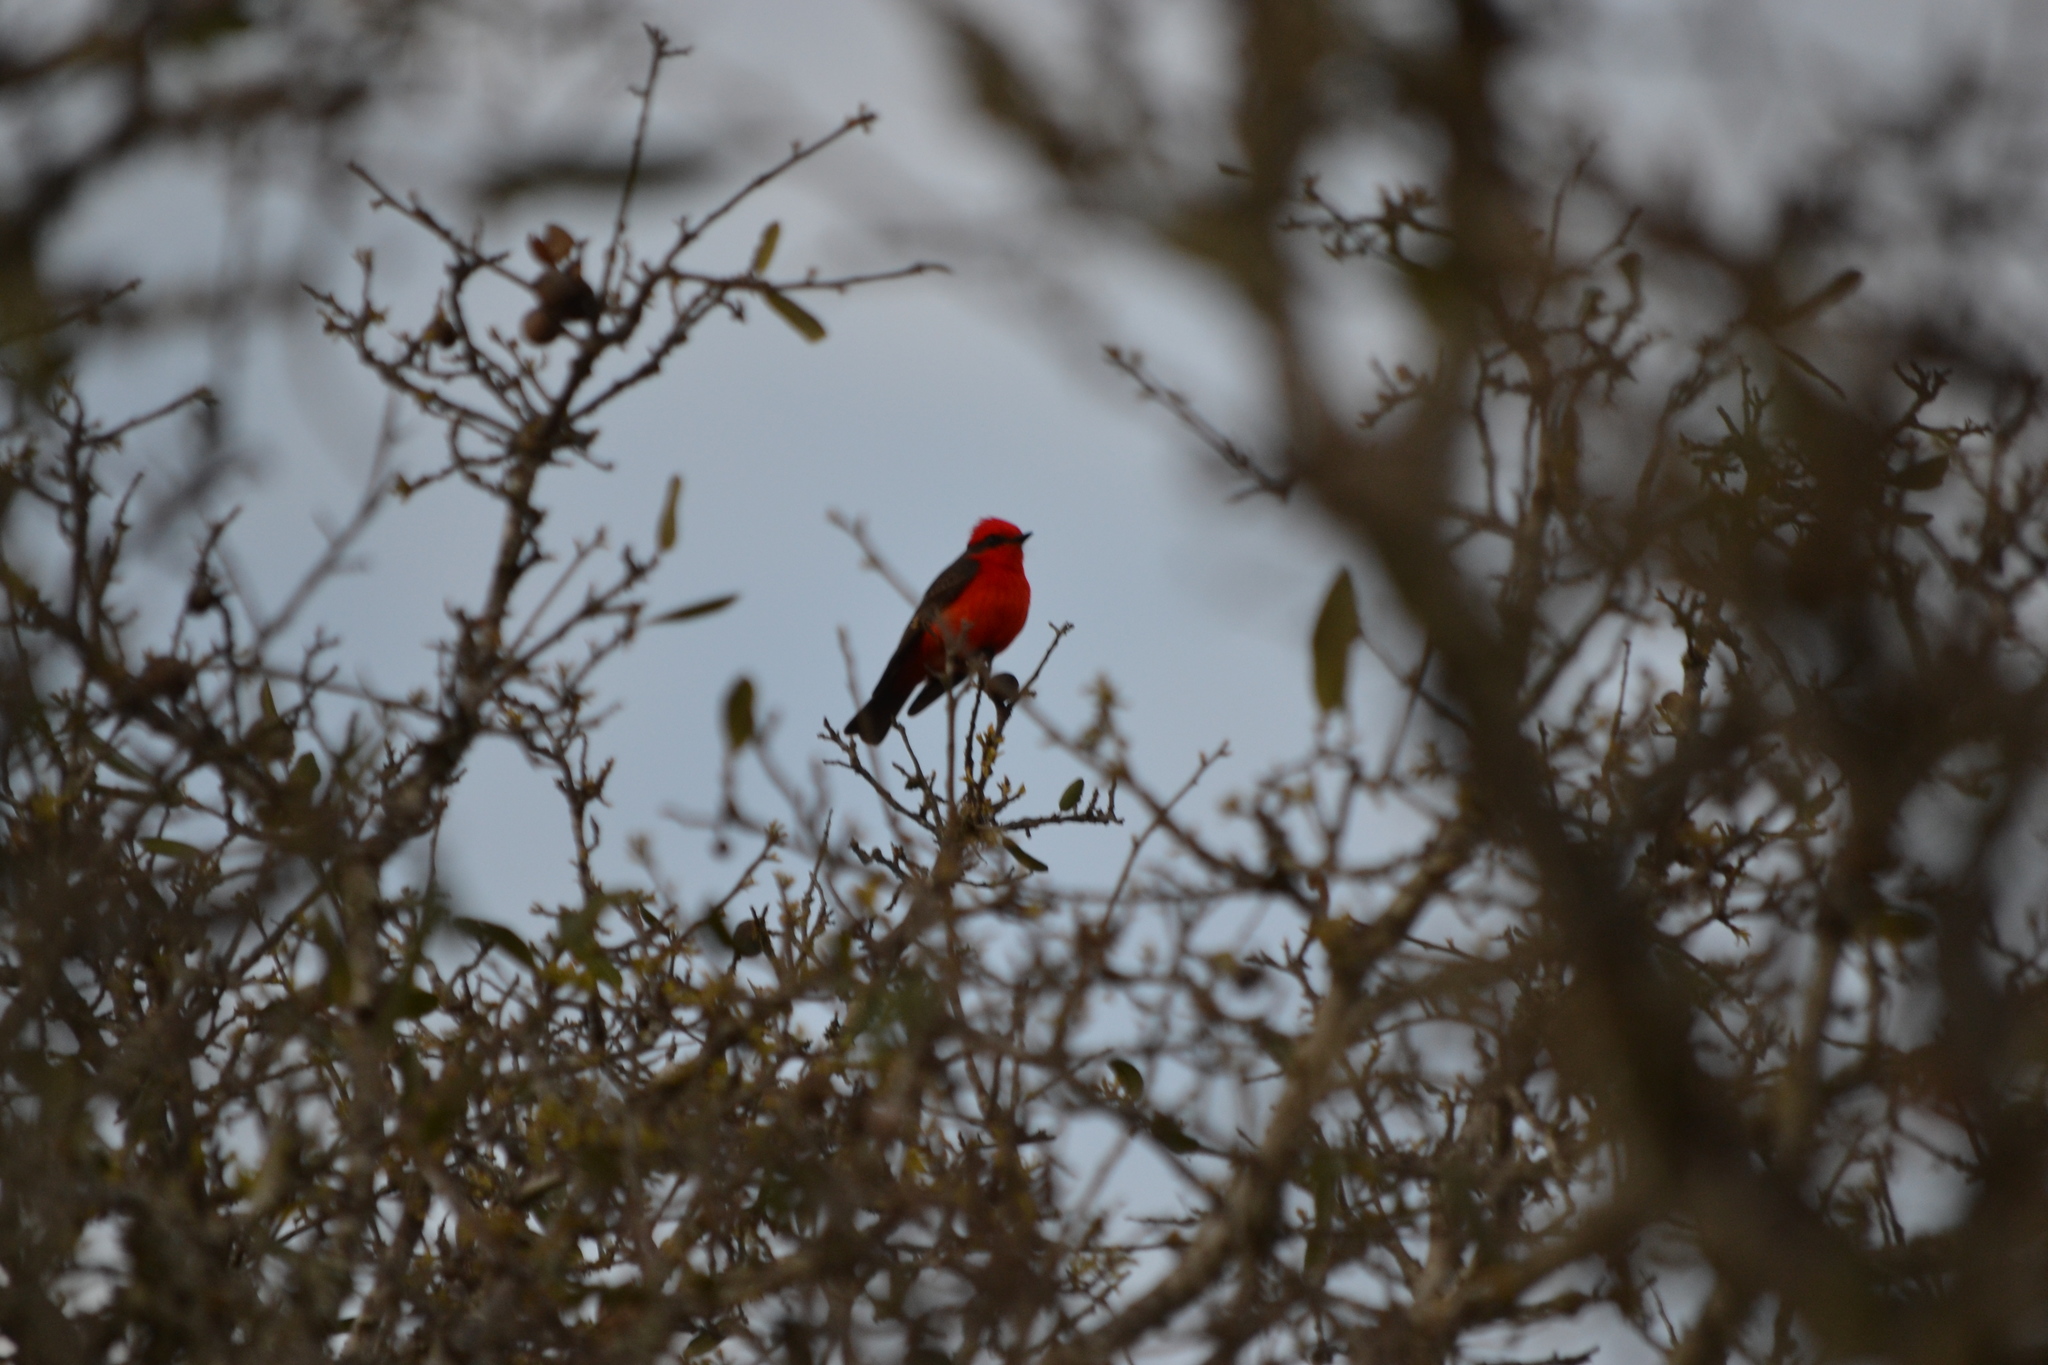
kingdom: Animalia
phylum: Chordata
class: Aves
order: Passeriformes
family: Tyrannidae
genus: Pyrocephalus
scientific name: Pyrocephalus rubinus
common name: Vermilion flycatcher
